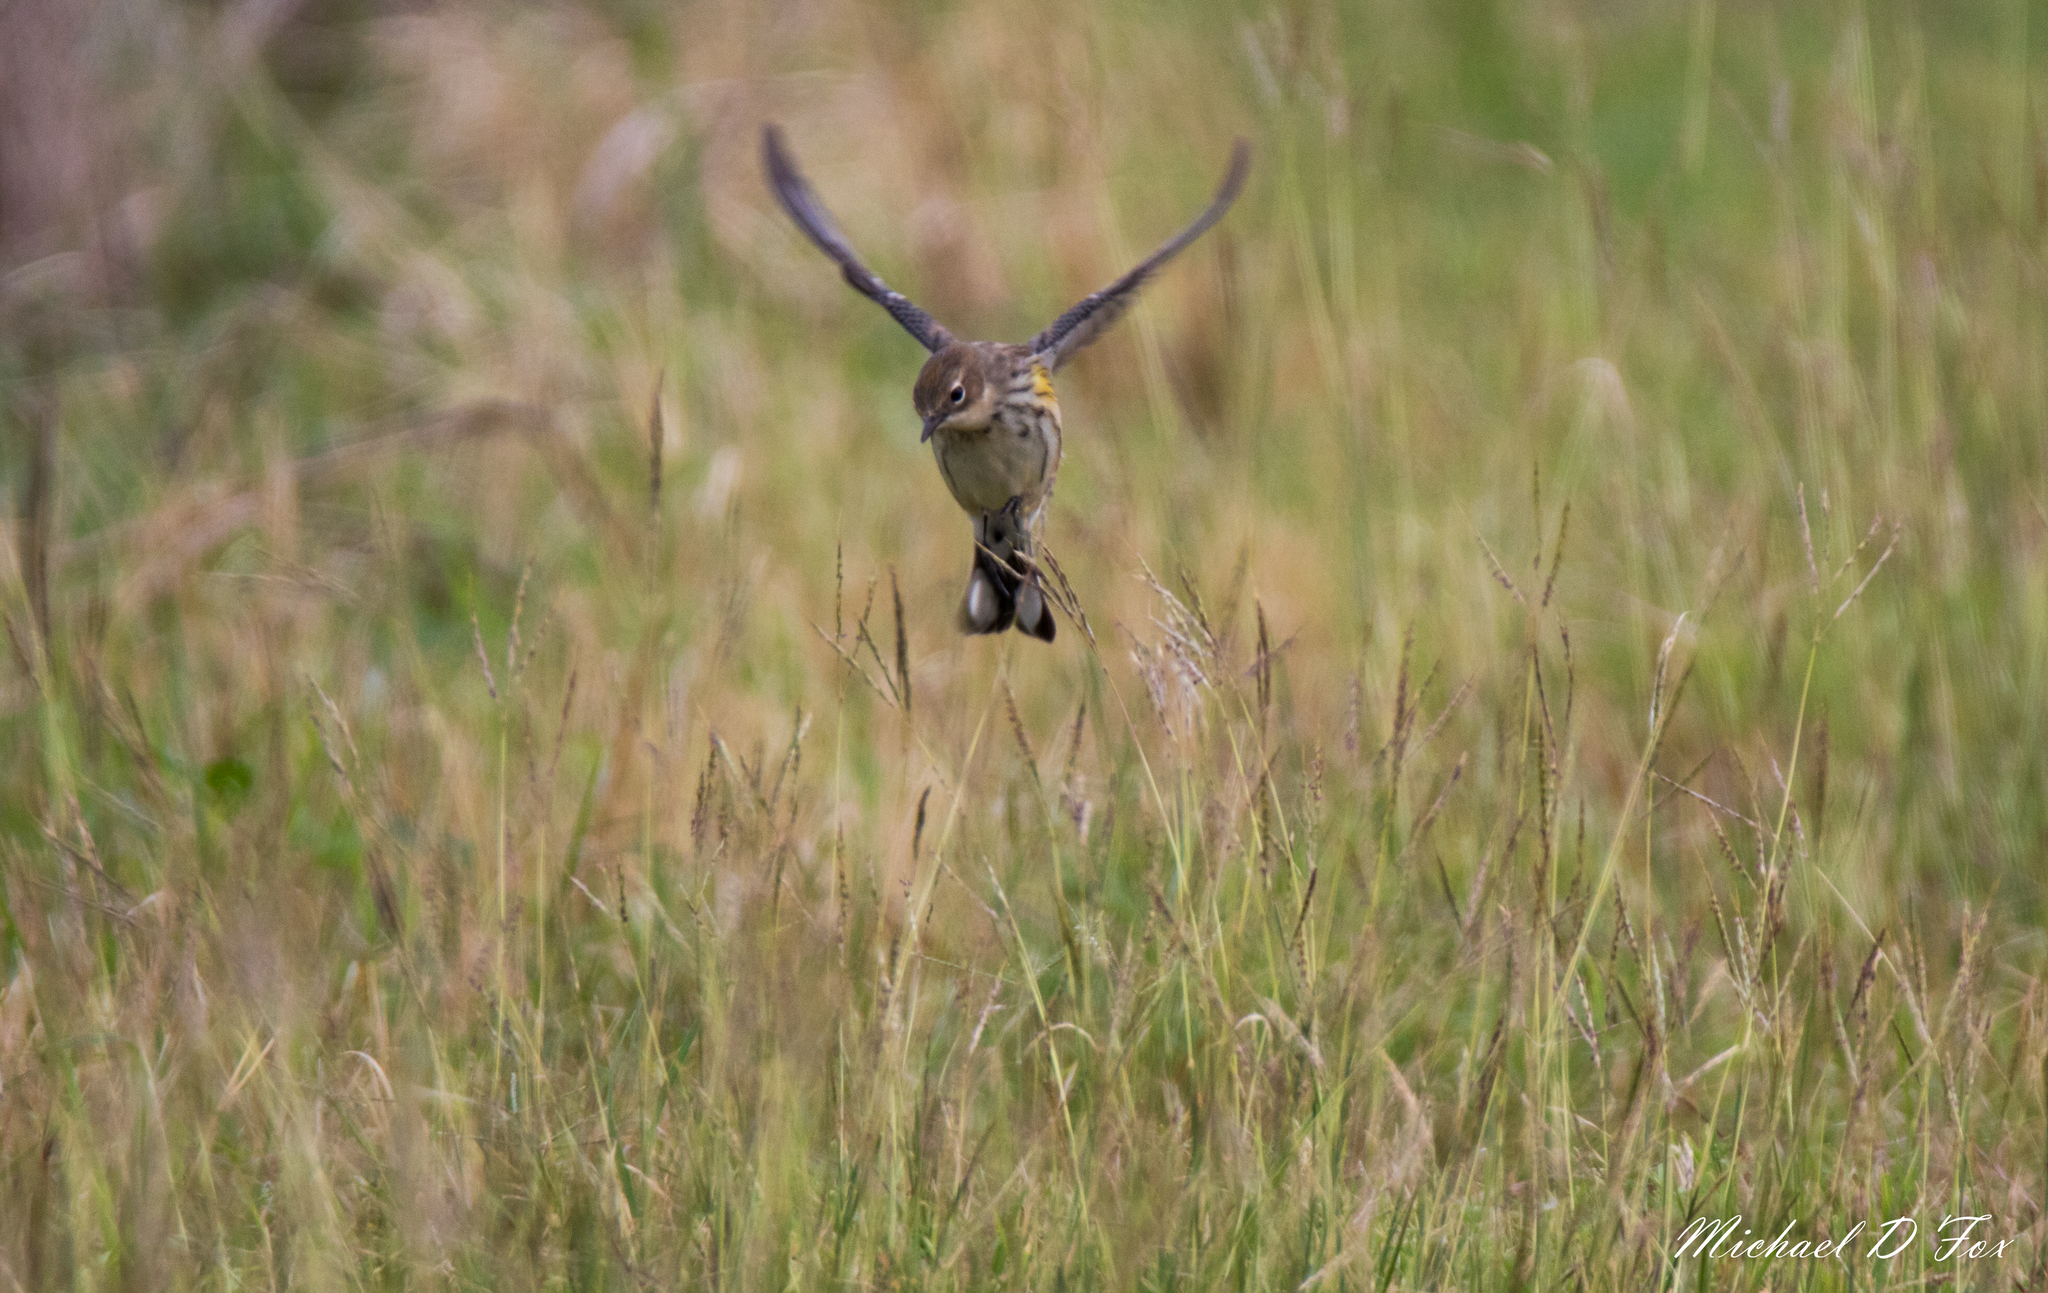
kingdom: Animalia
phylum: Chordata
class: Aves
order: Passeriformes
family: Parulidae
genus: Setophaga
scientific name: Setophaga coronata
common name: Myrtle warbler
